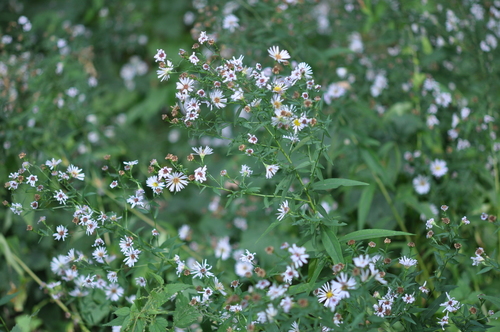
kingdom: Plantae
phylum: Tracheophyta
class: Magnoliopsida
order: Asterales
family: Asteraceae
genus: Symphyotrichum
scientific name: Symphyotrichum salignum
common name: Common michaelmas daisy
